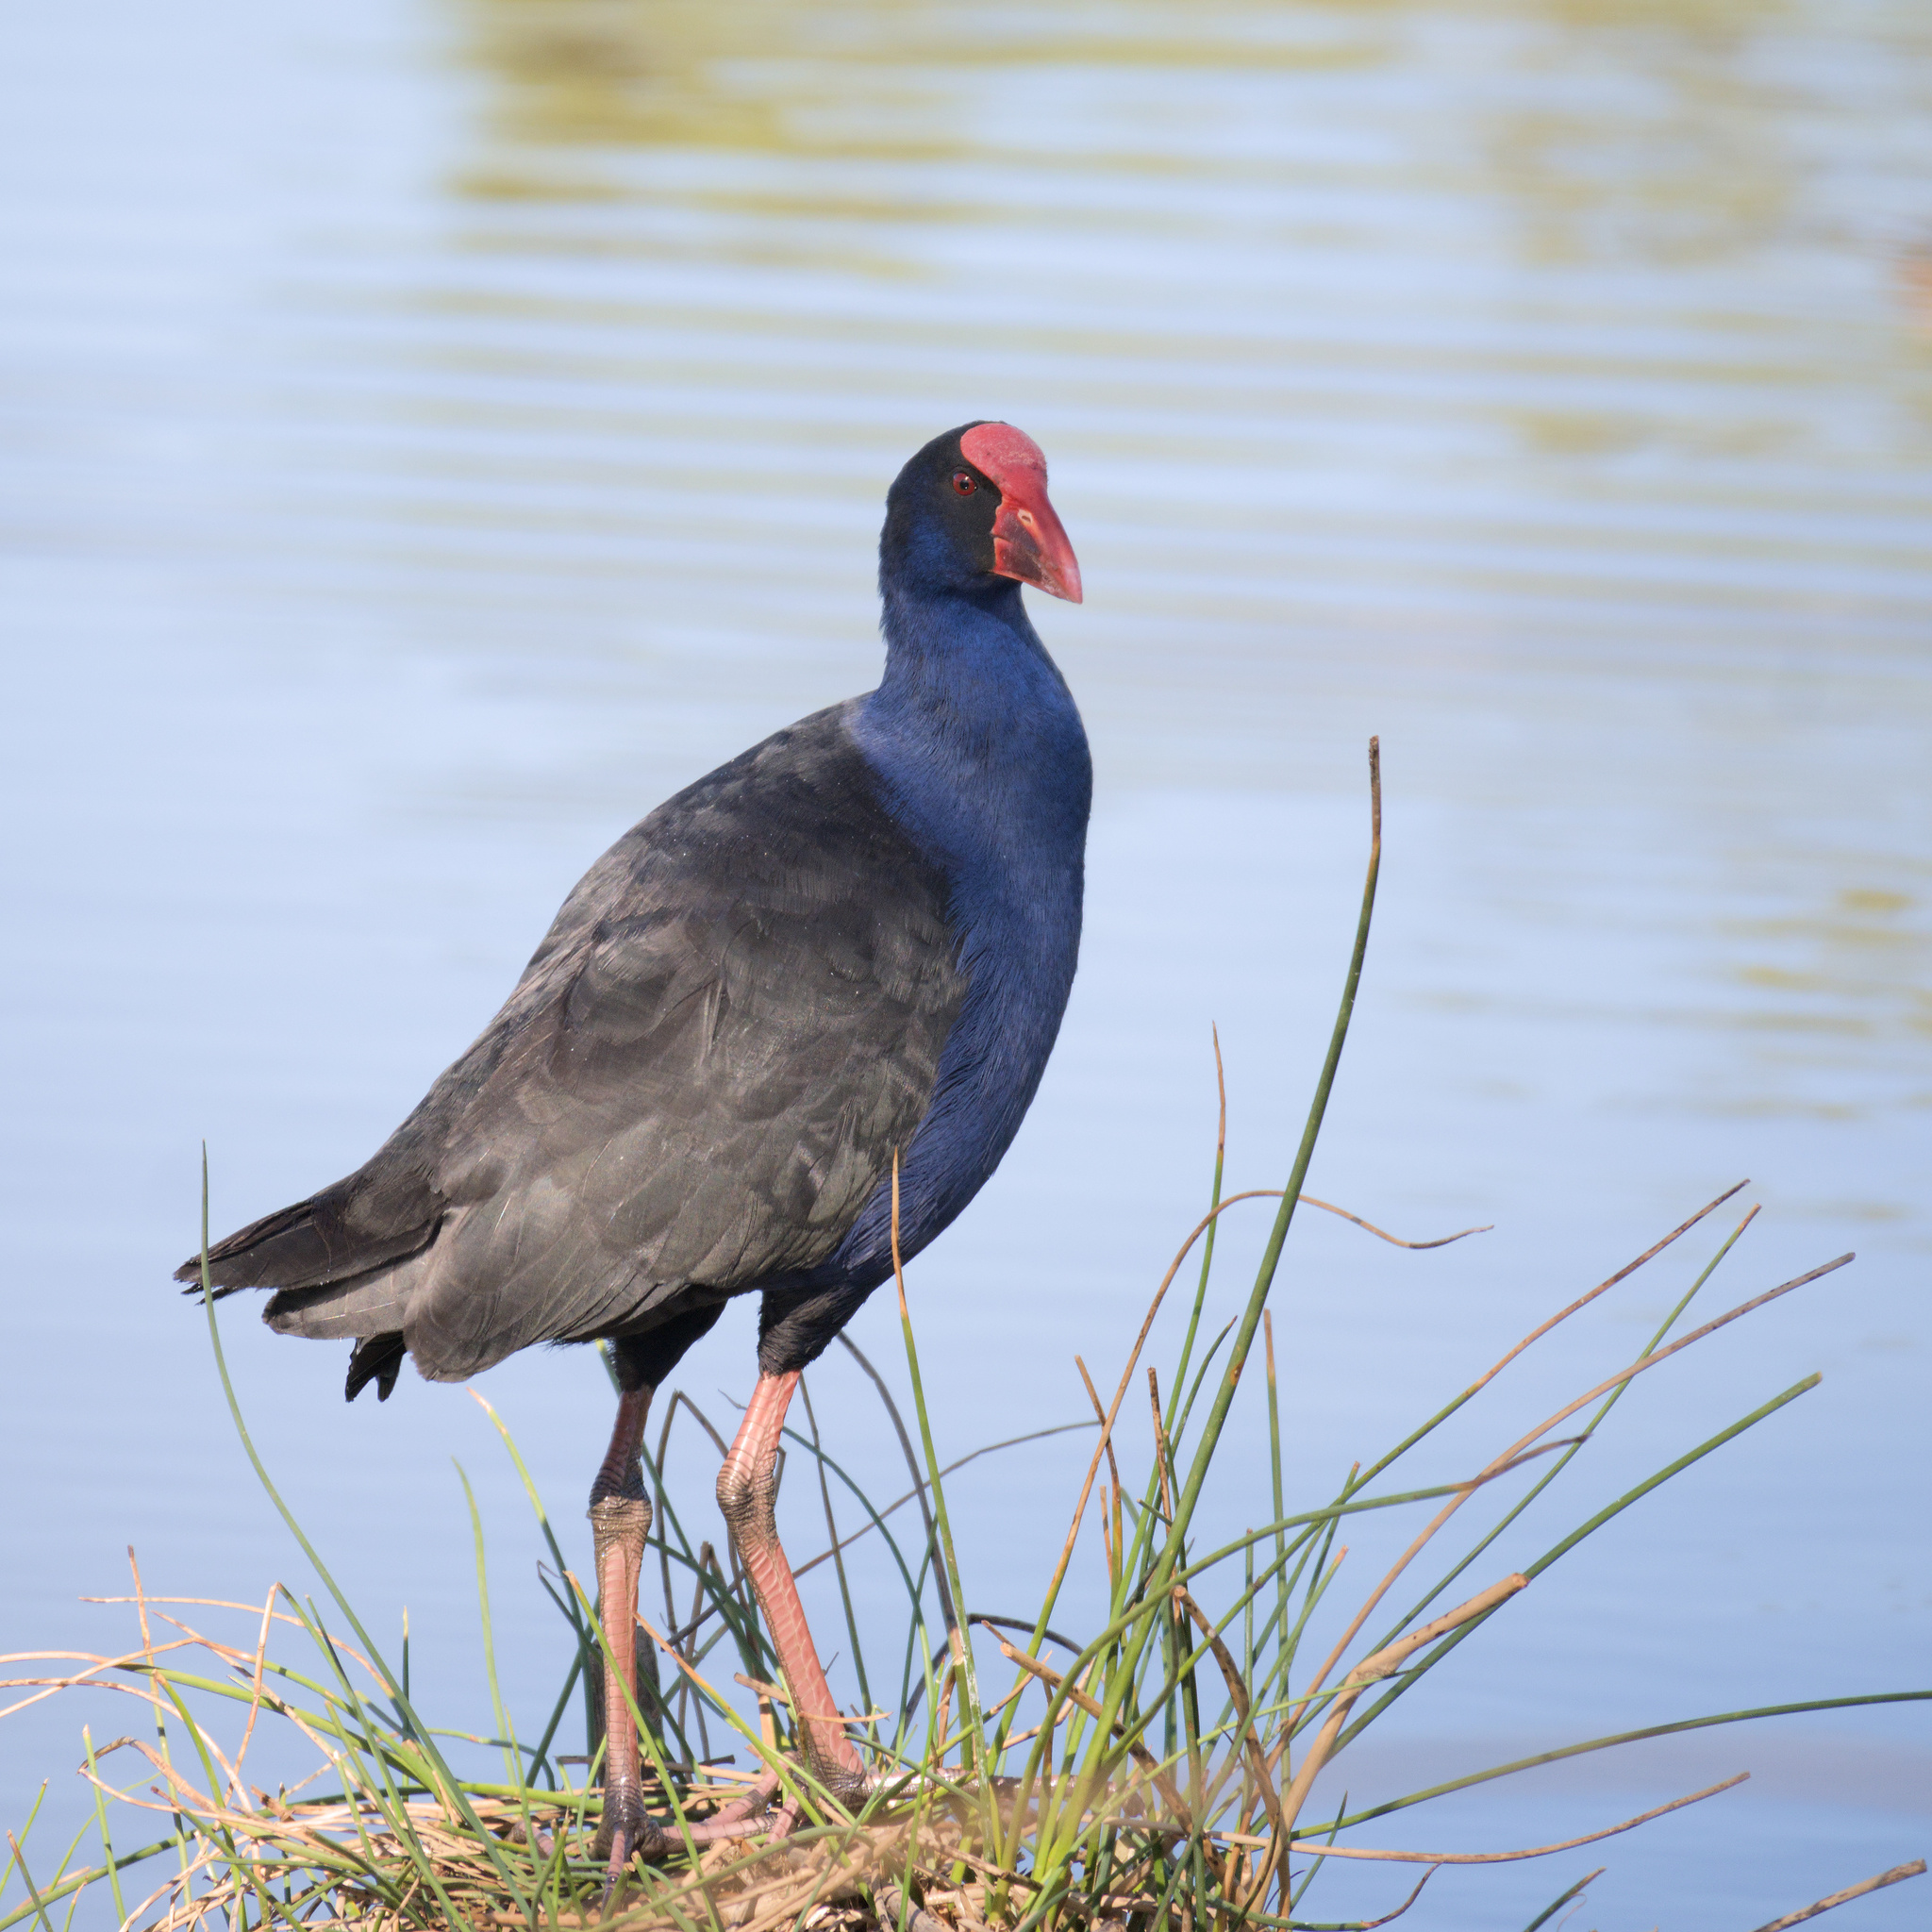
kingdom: Animalia
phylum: Chordata
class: Aves
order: Gruiformes
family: Rallidae
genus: Porphyrio
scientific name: Porphyrio melanotus
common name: Australasian swamphen
